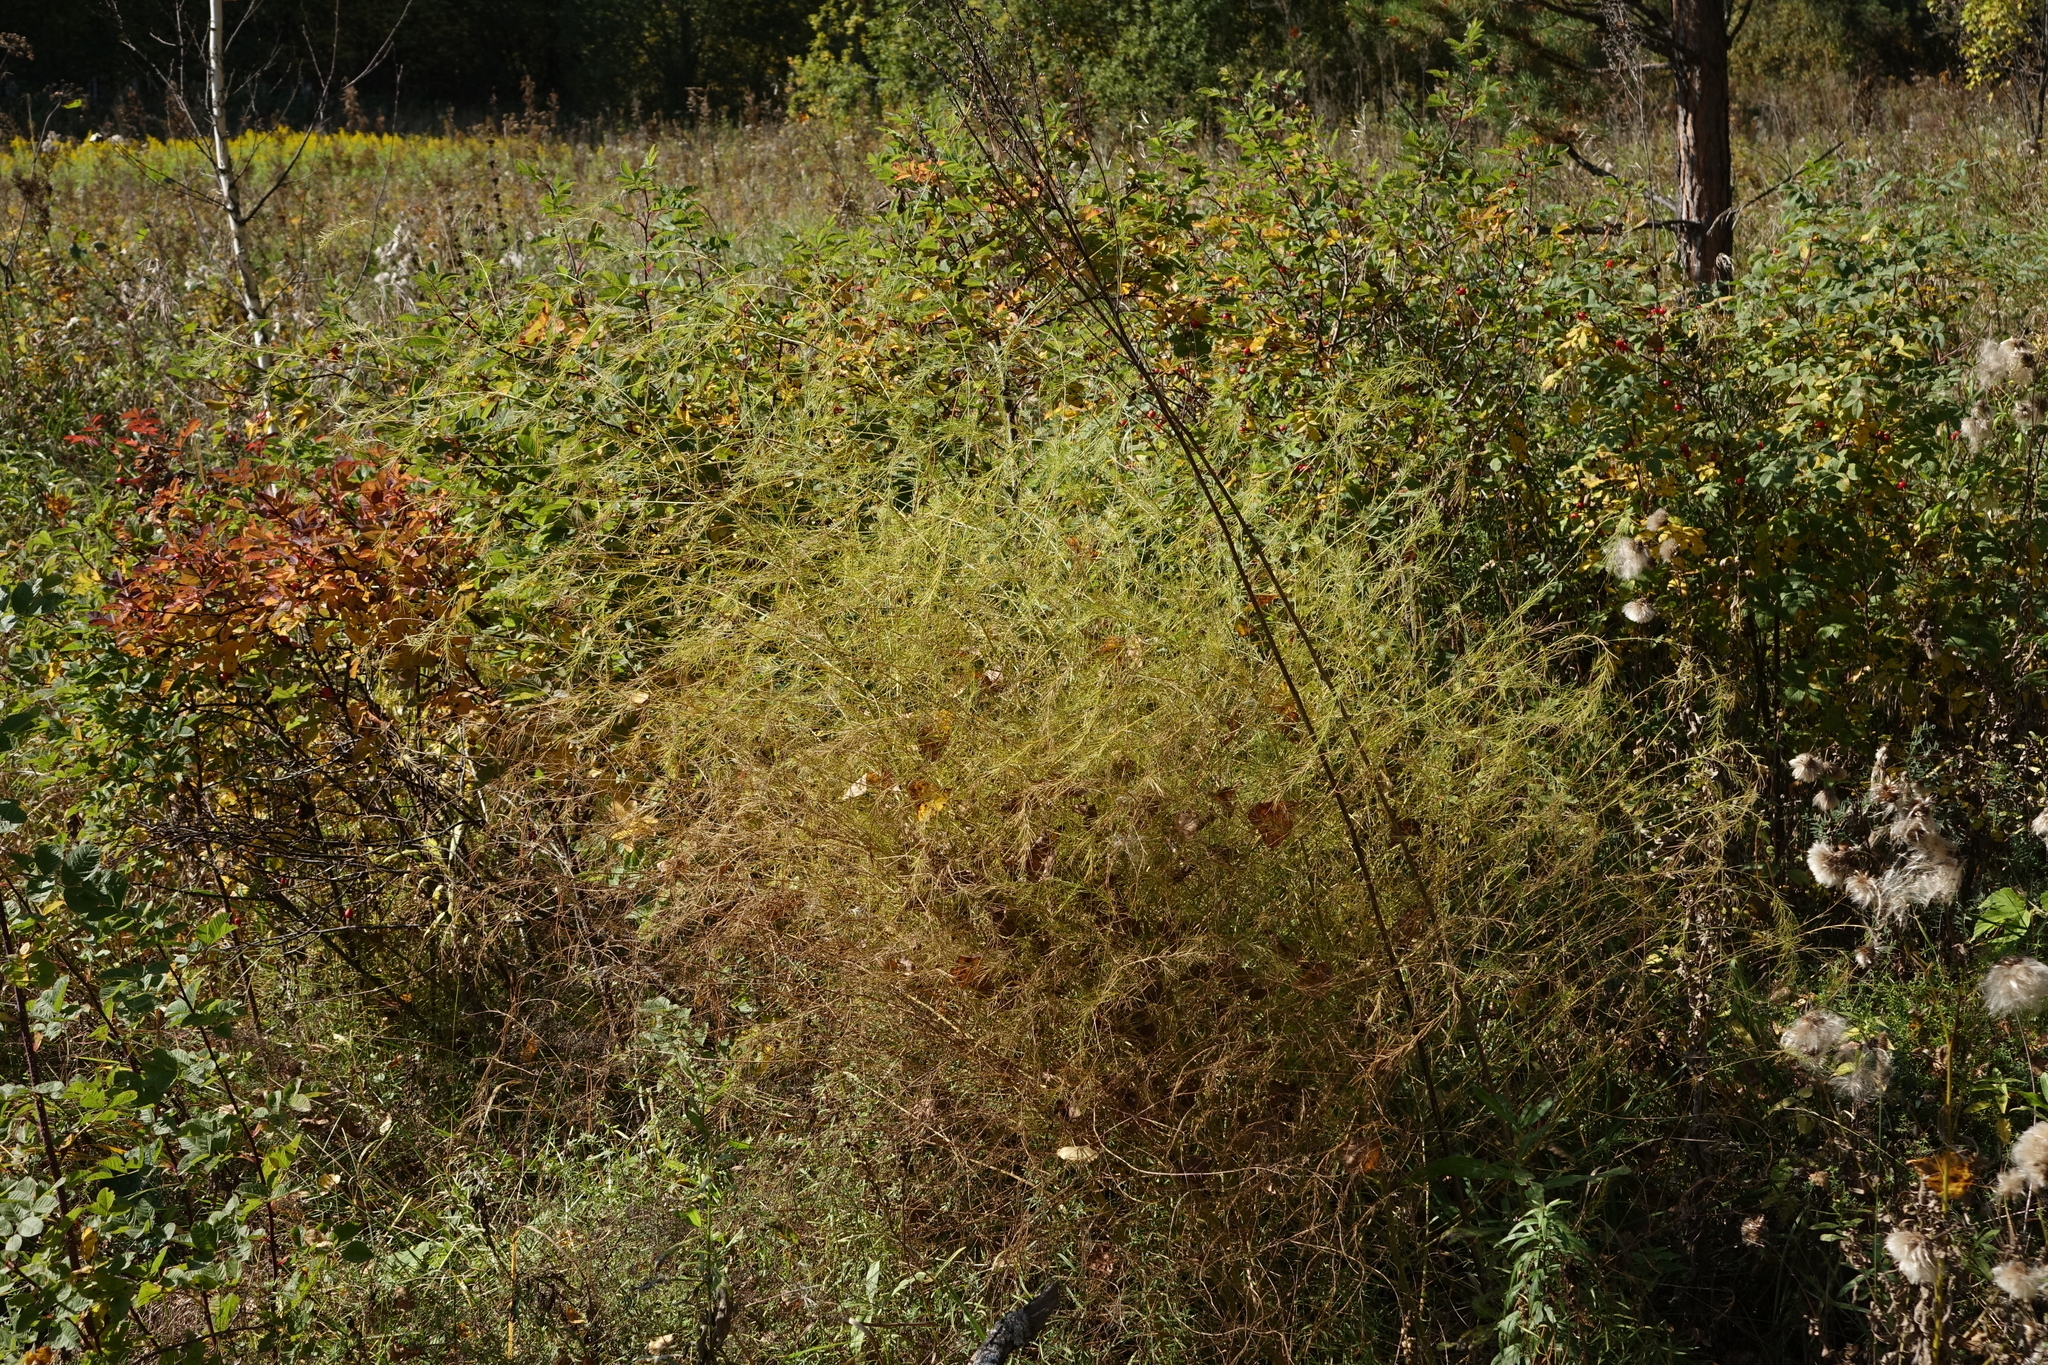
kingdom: Plantae
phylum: Tracheophyta
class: Liliopsida
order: Asparagales
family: Asparagaceae
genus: Asparagus
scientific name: Asparagus officinalis
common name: Garden asparagus
